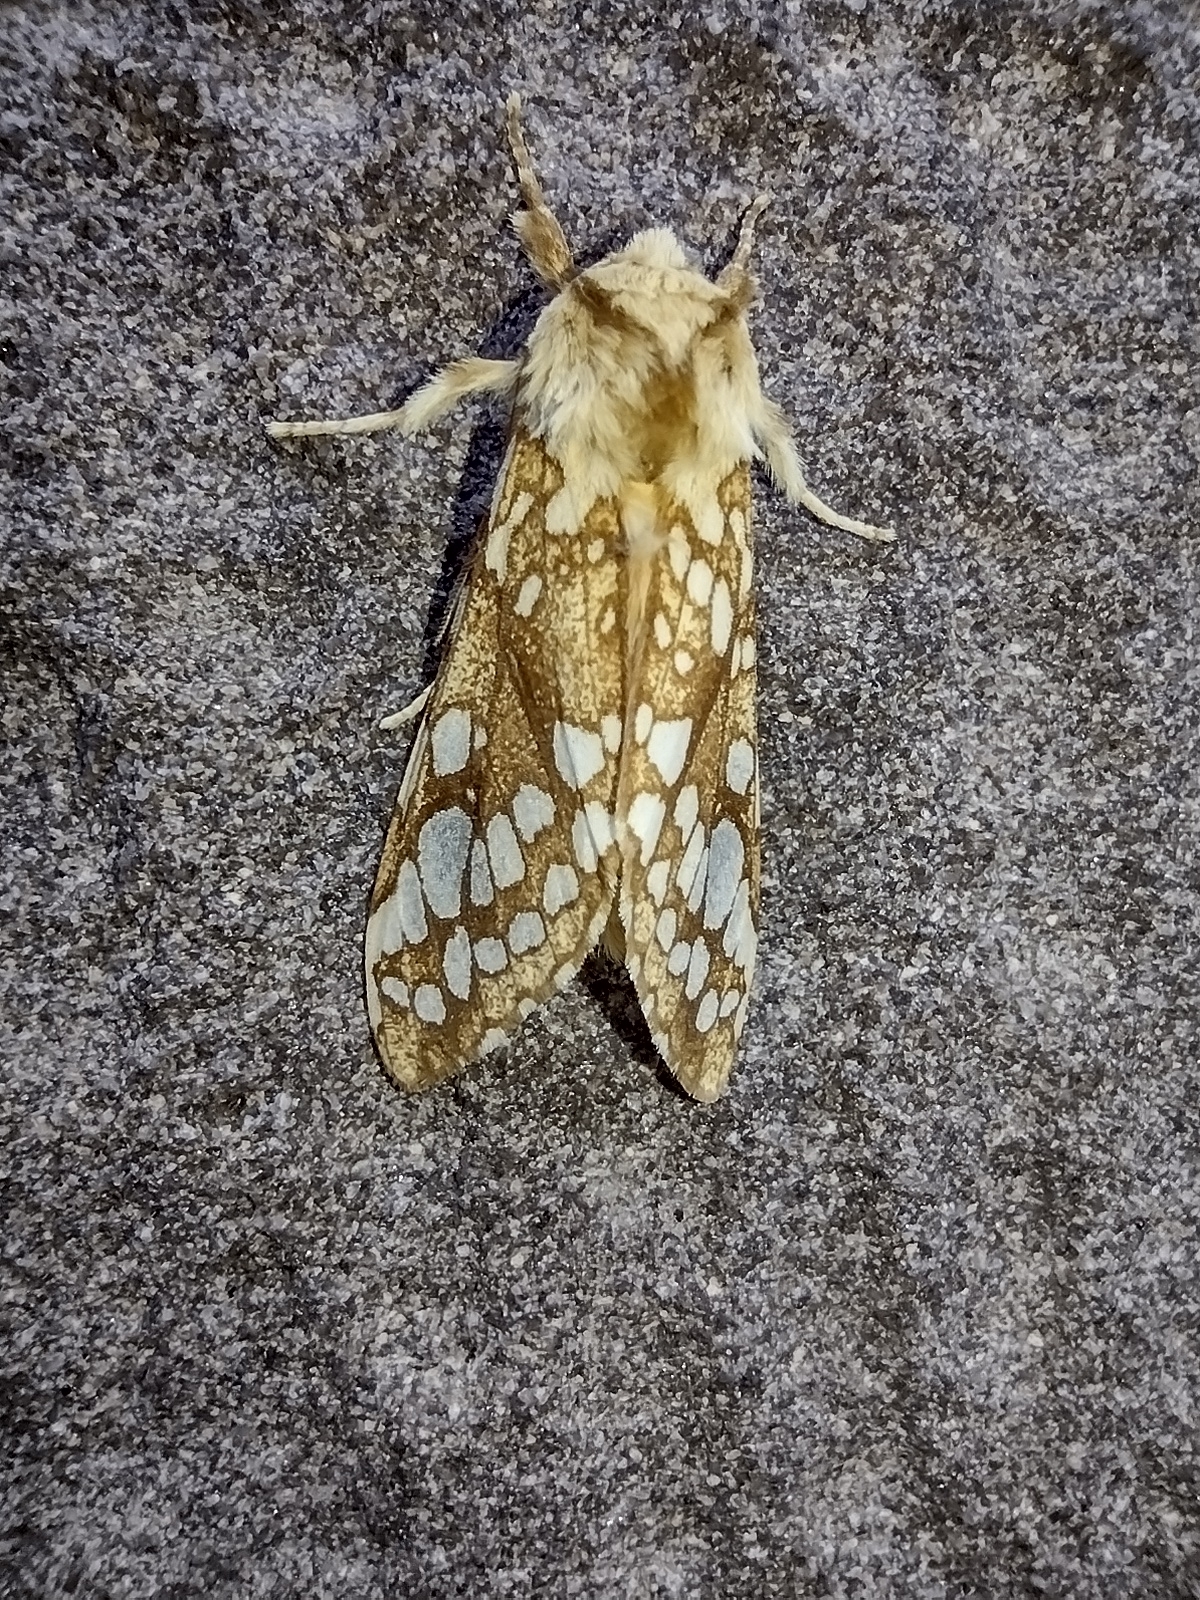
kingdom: Animalia
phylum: Arthropoda
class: Insecta
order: Lepidoptera
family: Erebidae
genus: Lophocampa
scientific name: Lophocampa caryae
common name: Hickory tussock moth
